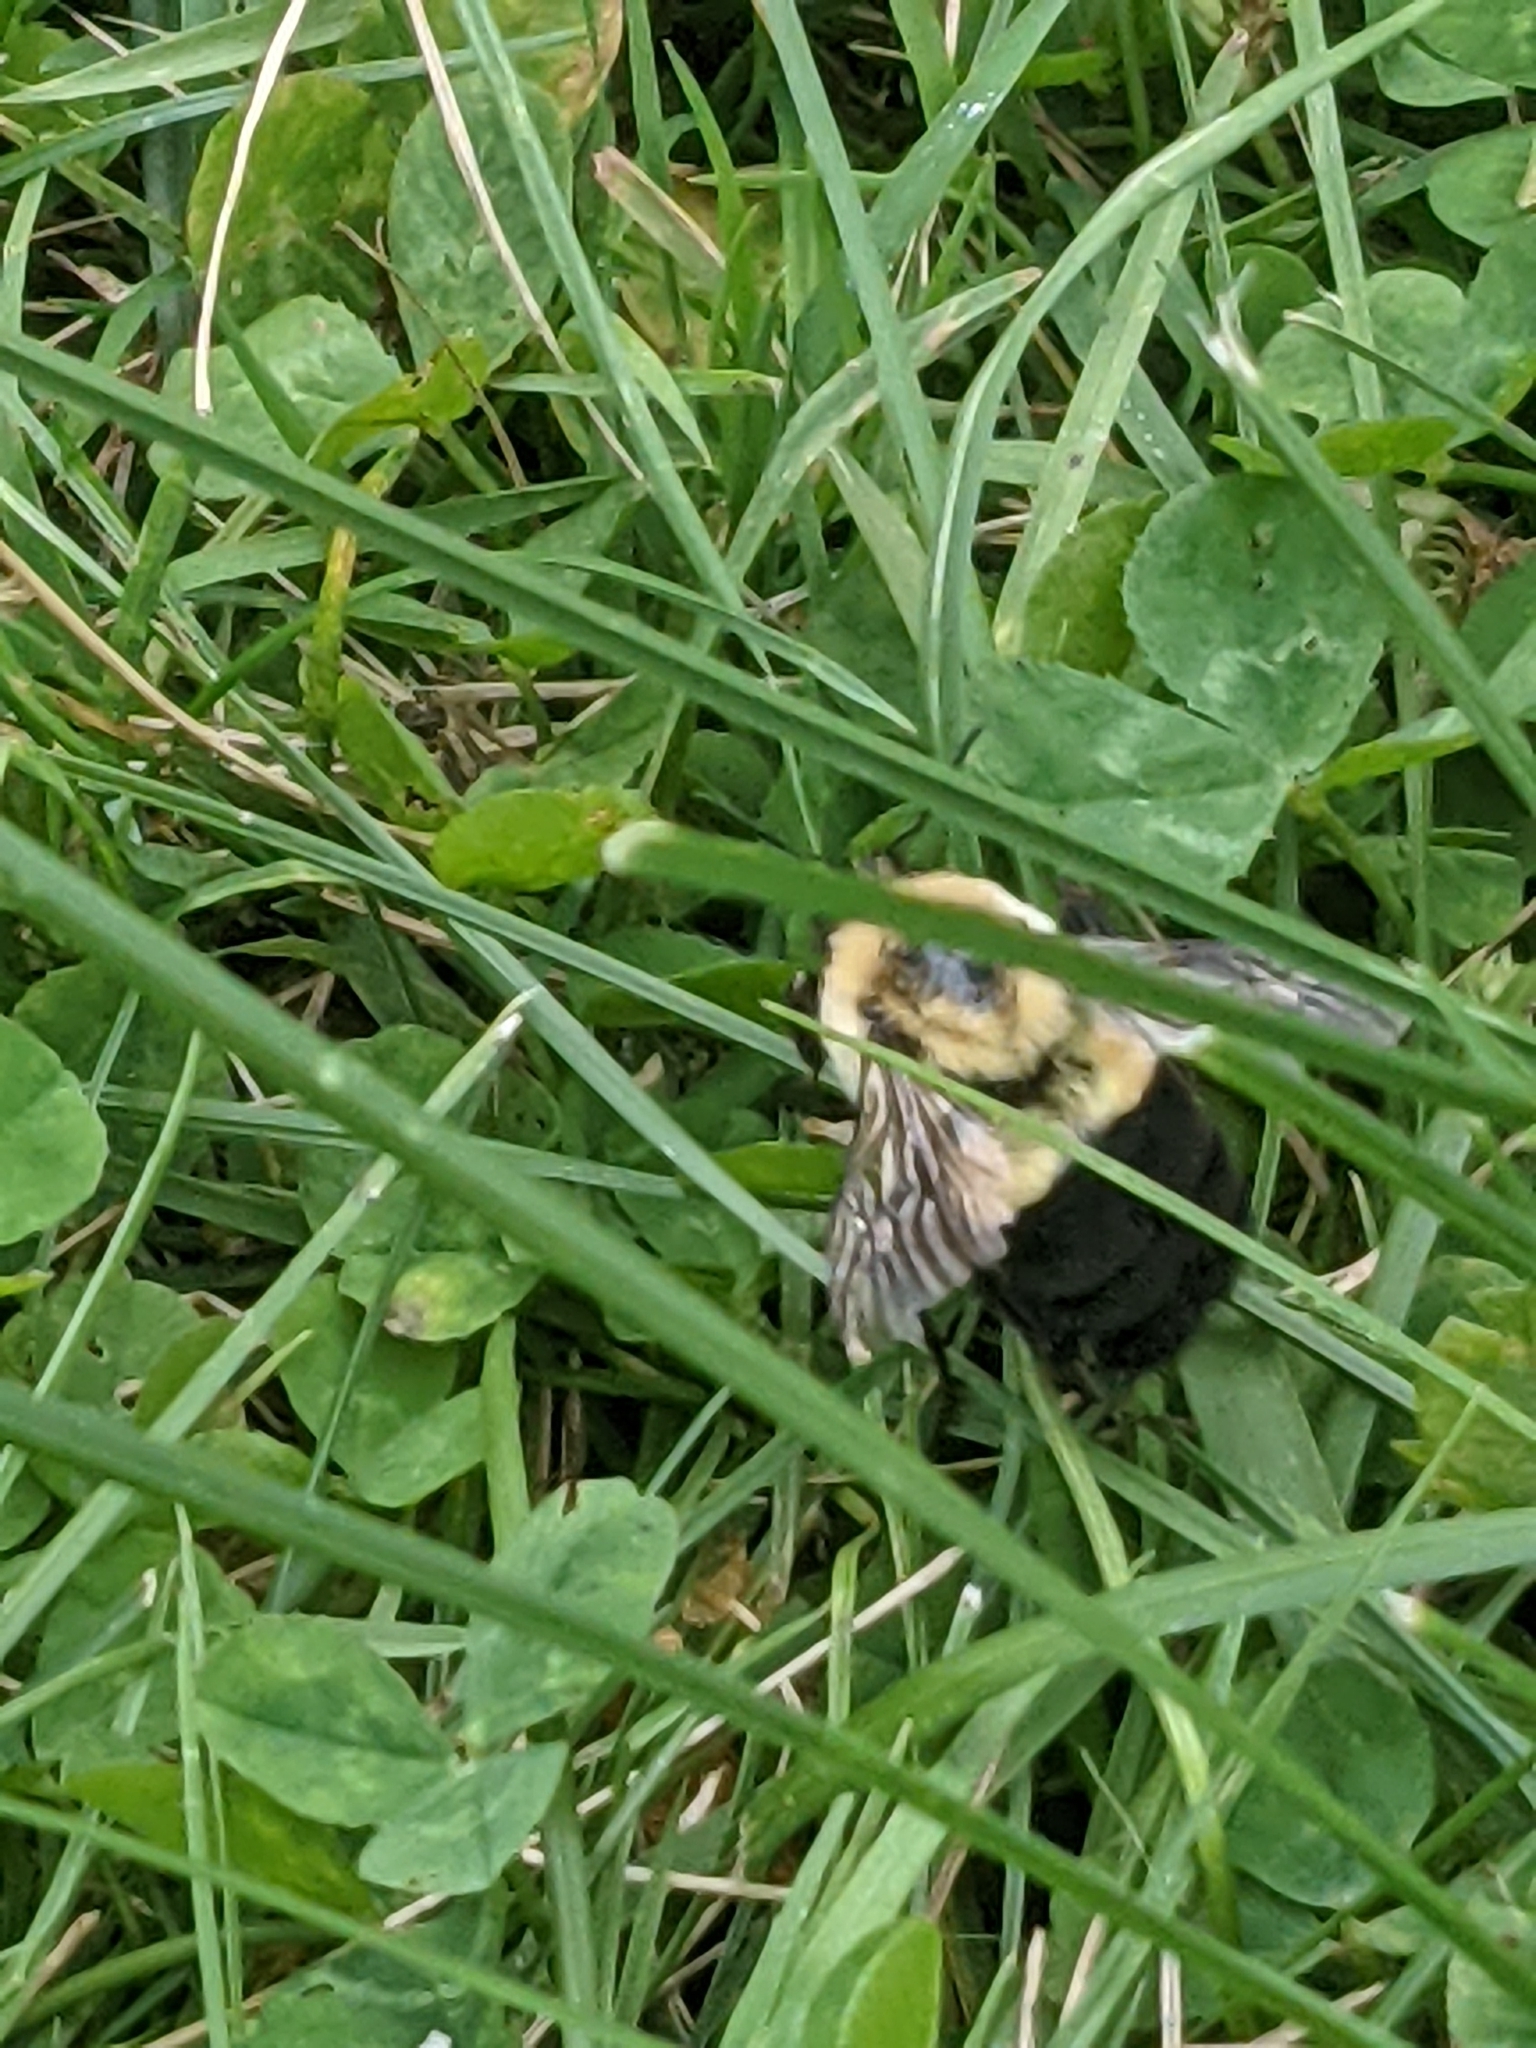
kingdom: Animalia
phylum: Arthropoda
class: Insecta
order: Hymenoptera
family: Apidae
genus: Bombus
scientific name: Bombus impatiens
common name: Common eastern bumble bee
